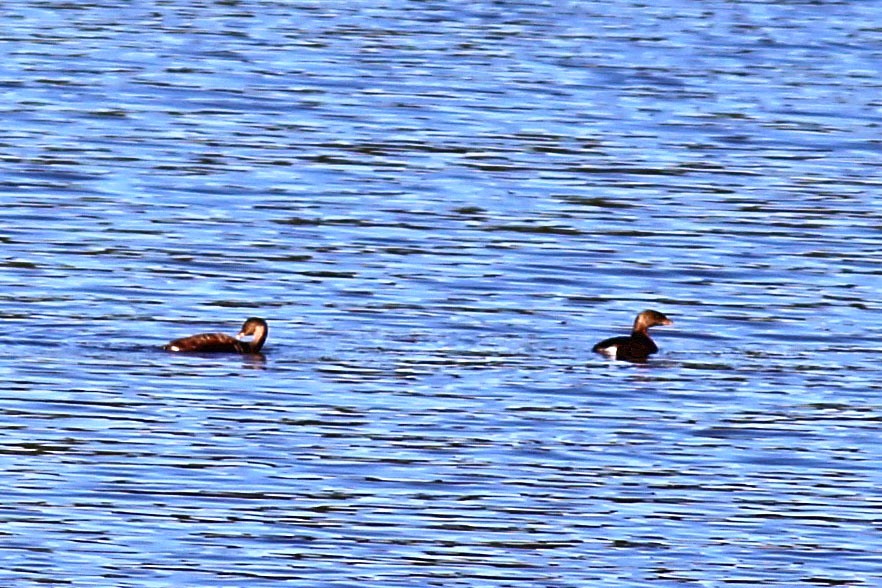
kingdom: Animalia
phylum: Chordata
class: Aves
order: Podicipediformes
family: Podicipedidae
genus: Podilymbus
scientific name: Podilymbus podiceps
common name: Pied-billed grebe
